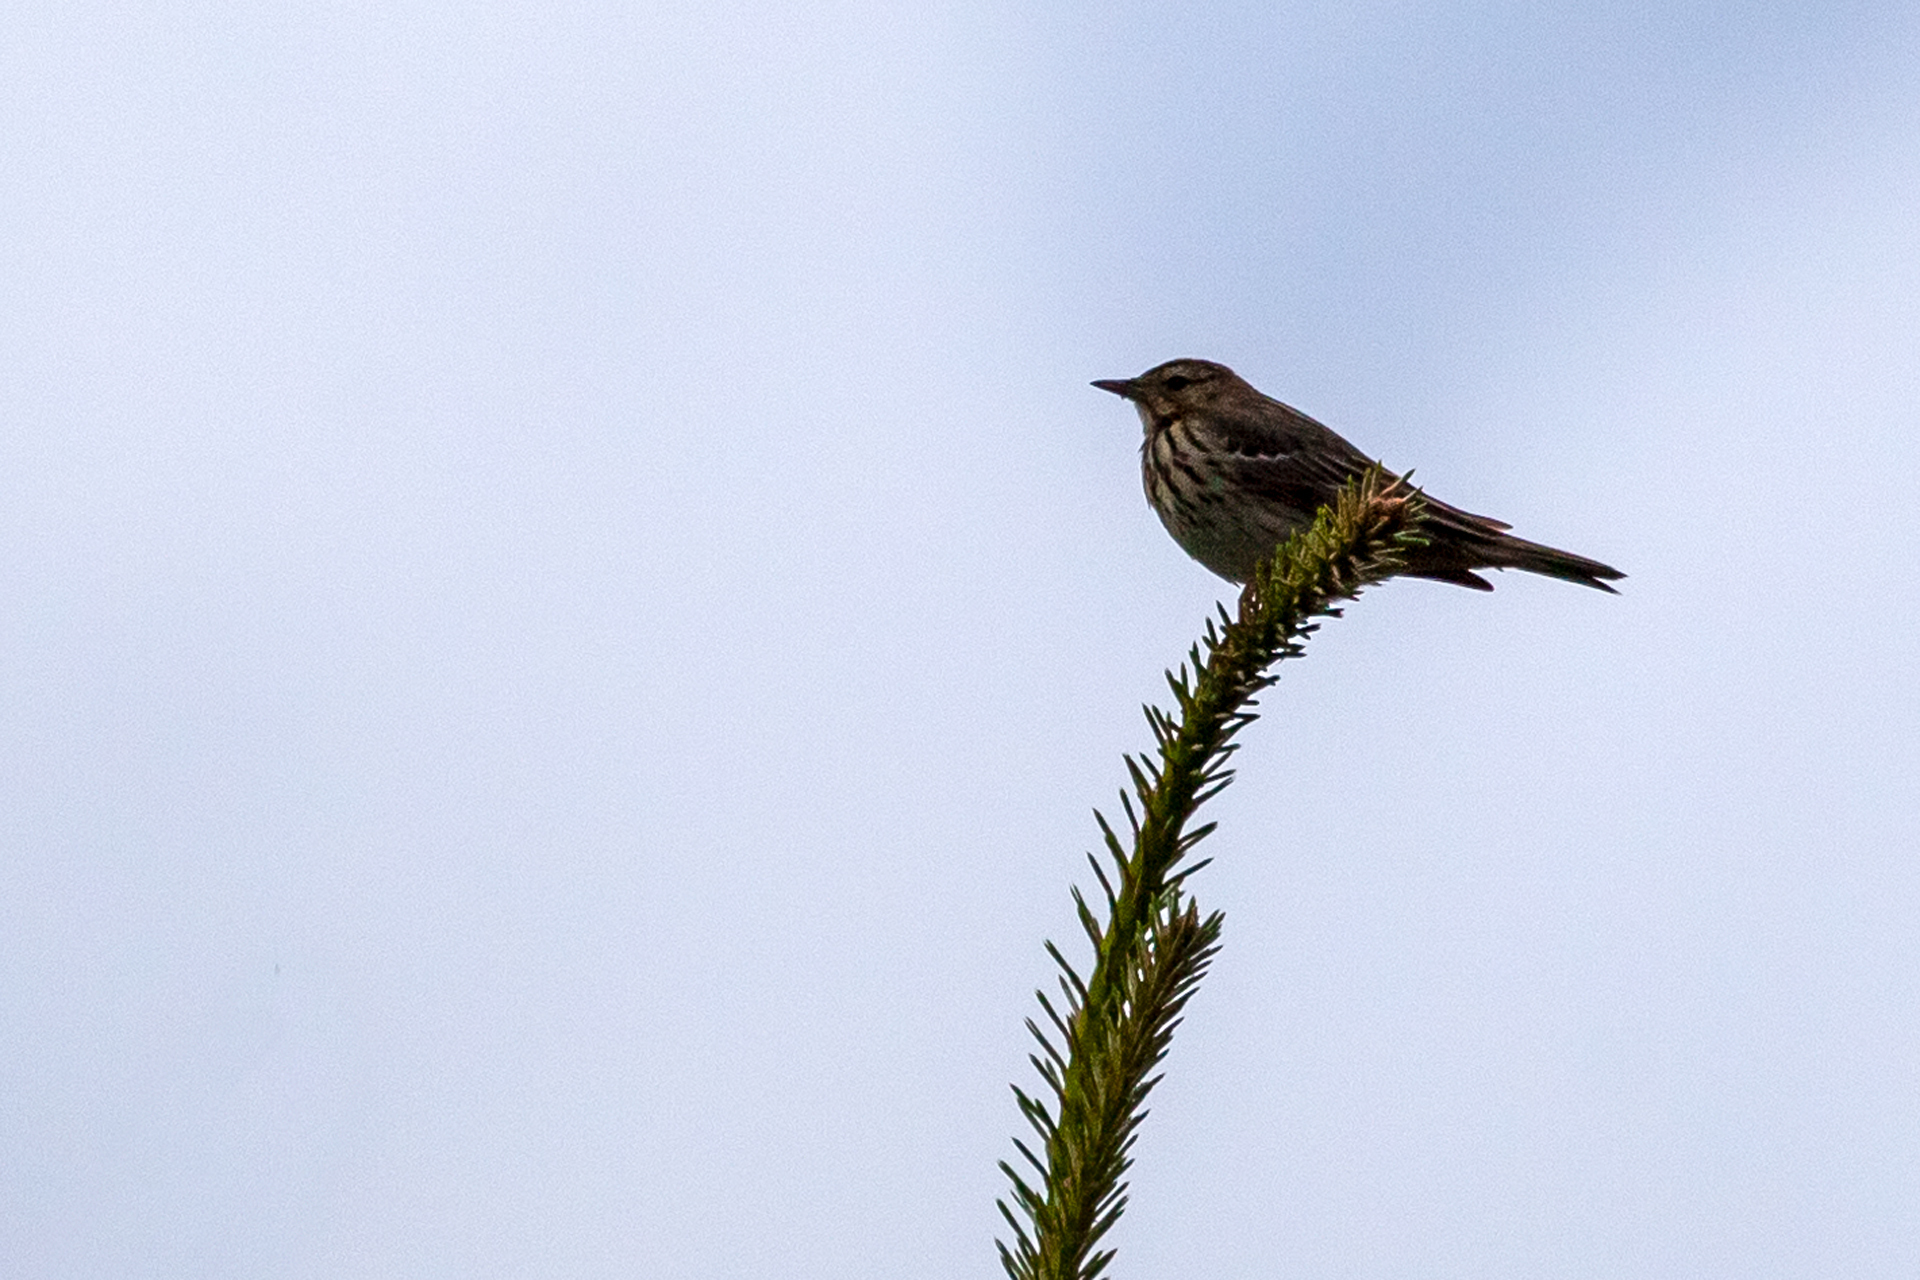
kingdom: Animalia
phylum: Chordata
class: Aves
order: Passeriformes
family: Motacillidae
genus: Anthus
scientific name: Anthus trivialis
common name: Tree pipit
